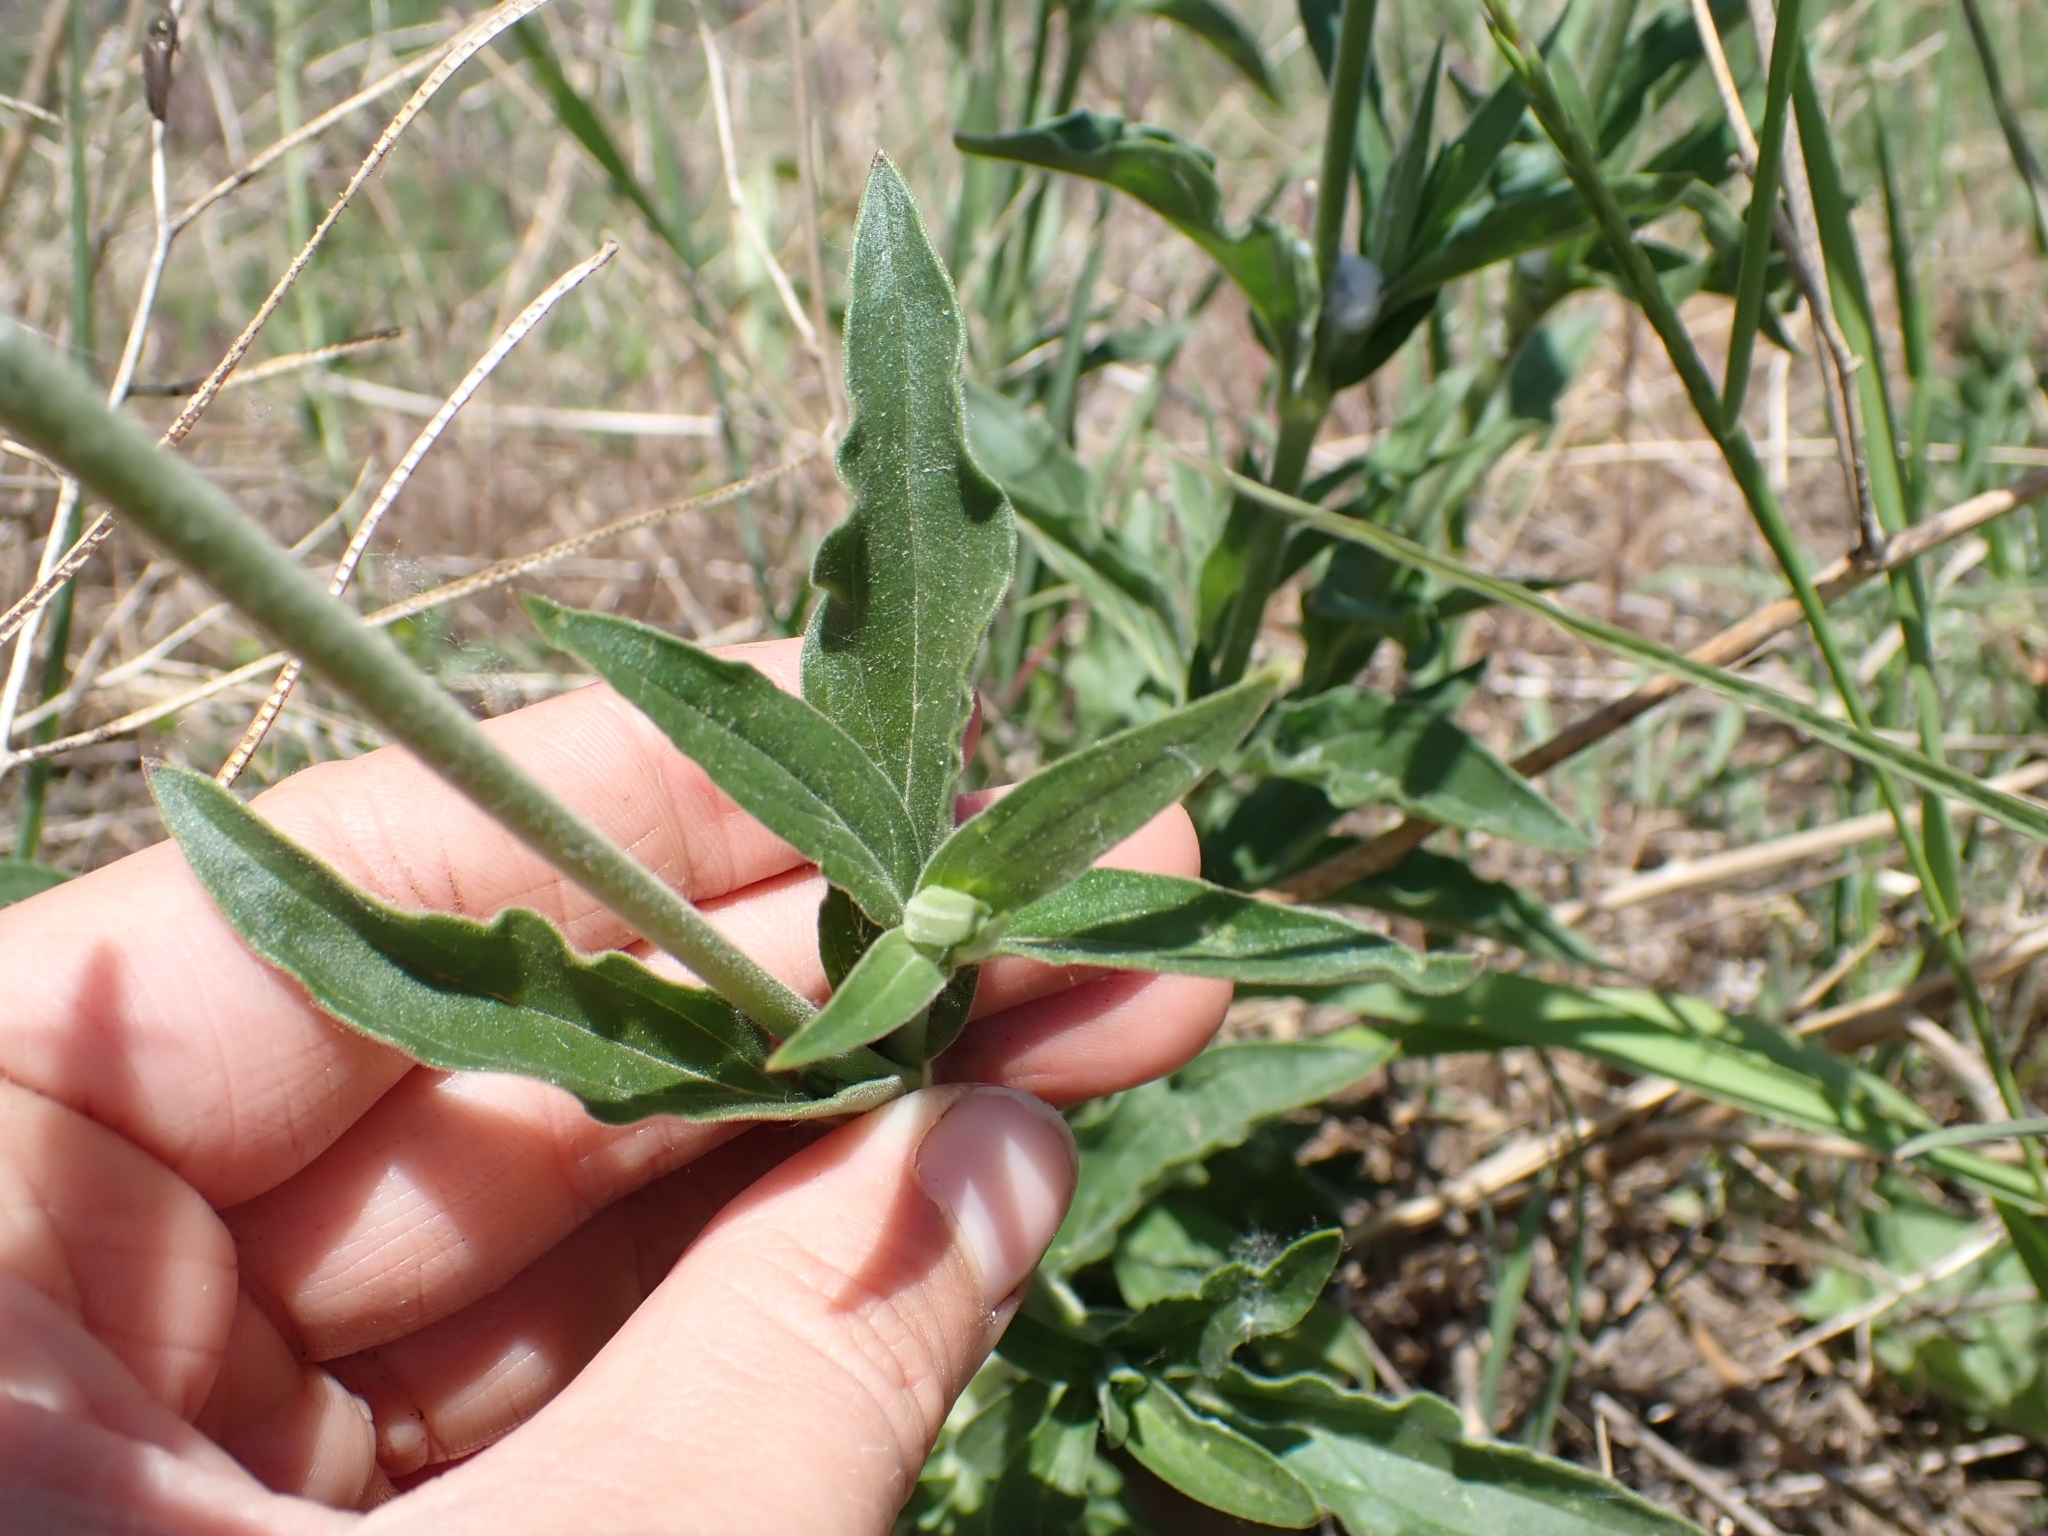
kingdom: Plantae
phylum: Tracheophyta
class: Magnoliopsida
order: Caryophyllales
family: Caryophyllaceae
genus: Silene
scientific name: Silene latifolia
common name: White campion
